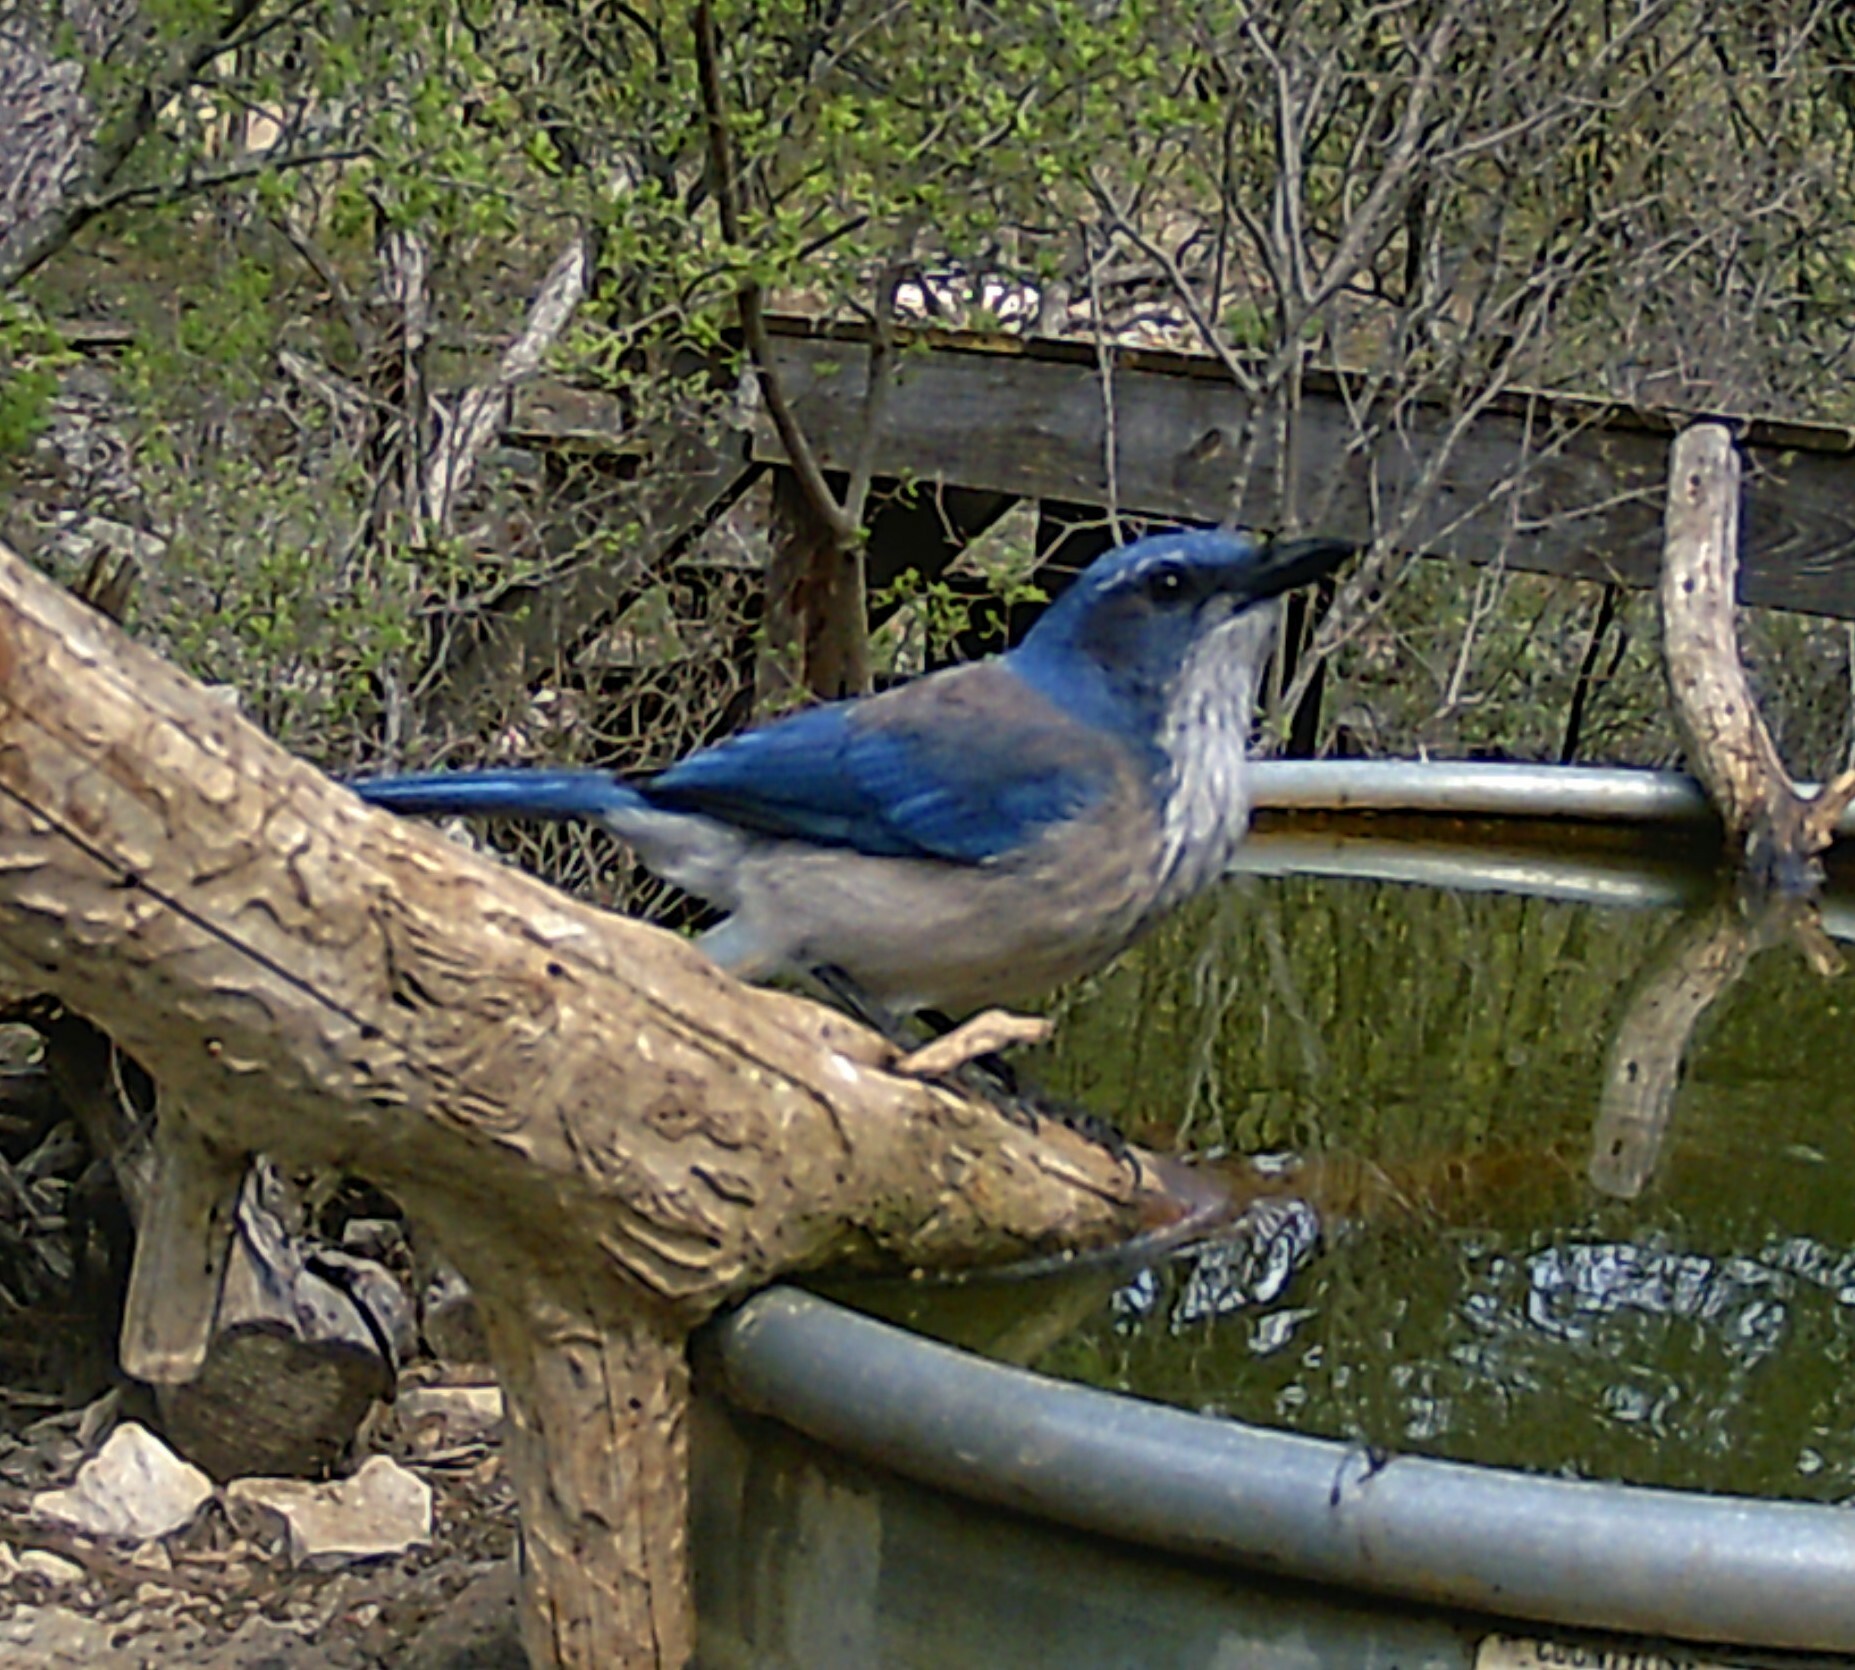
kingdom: Animalia
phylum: Chordata
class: Aves
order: Passeriformes
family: Corvidae
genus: Aphelocoma
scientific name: Aphelocoma woodhouseii
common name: Woodhouse's scrub-jay
